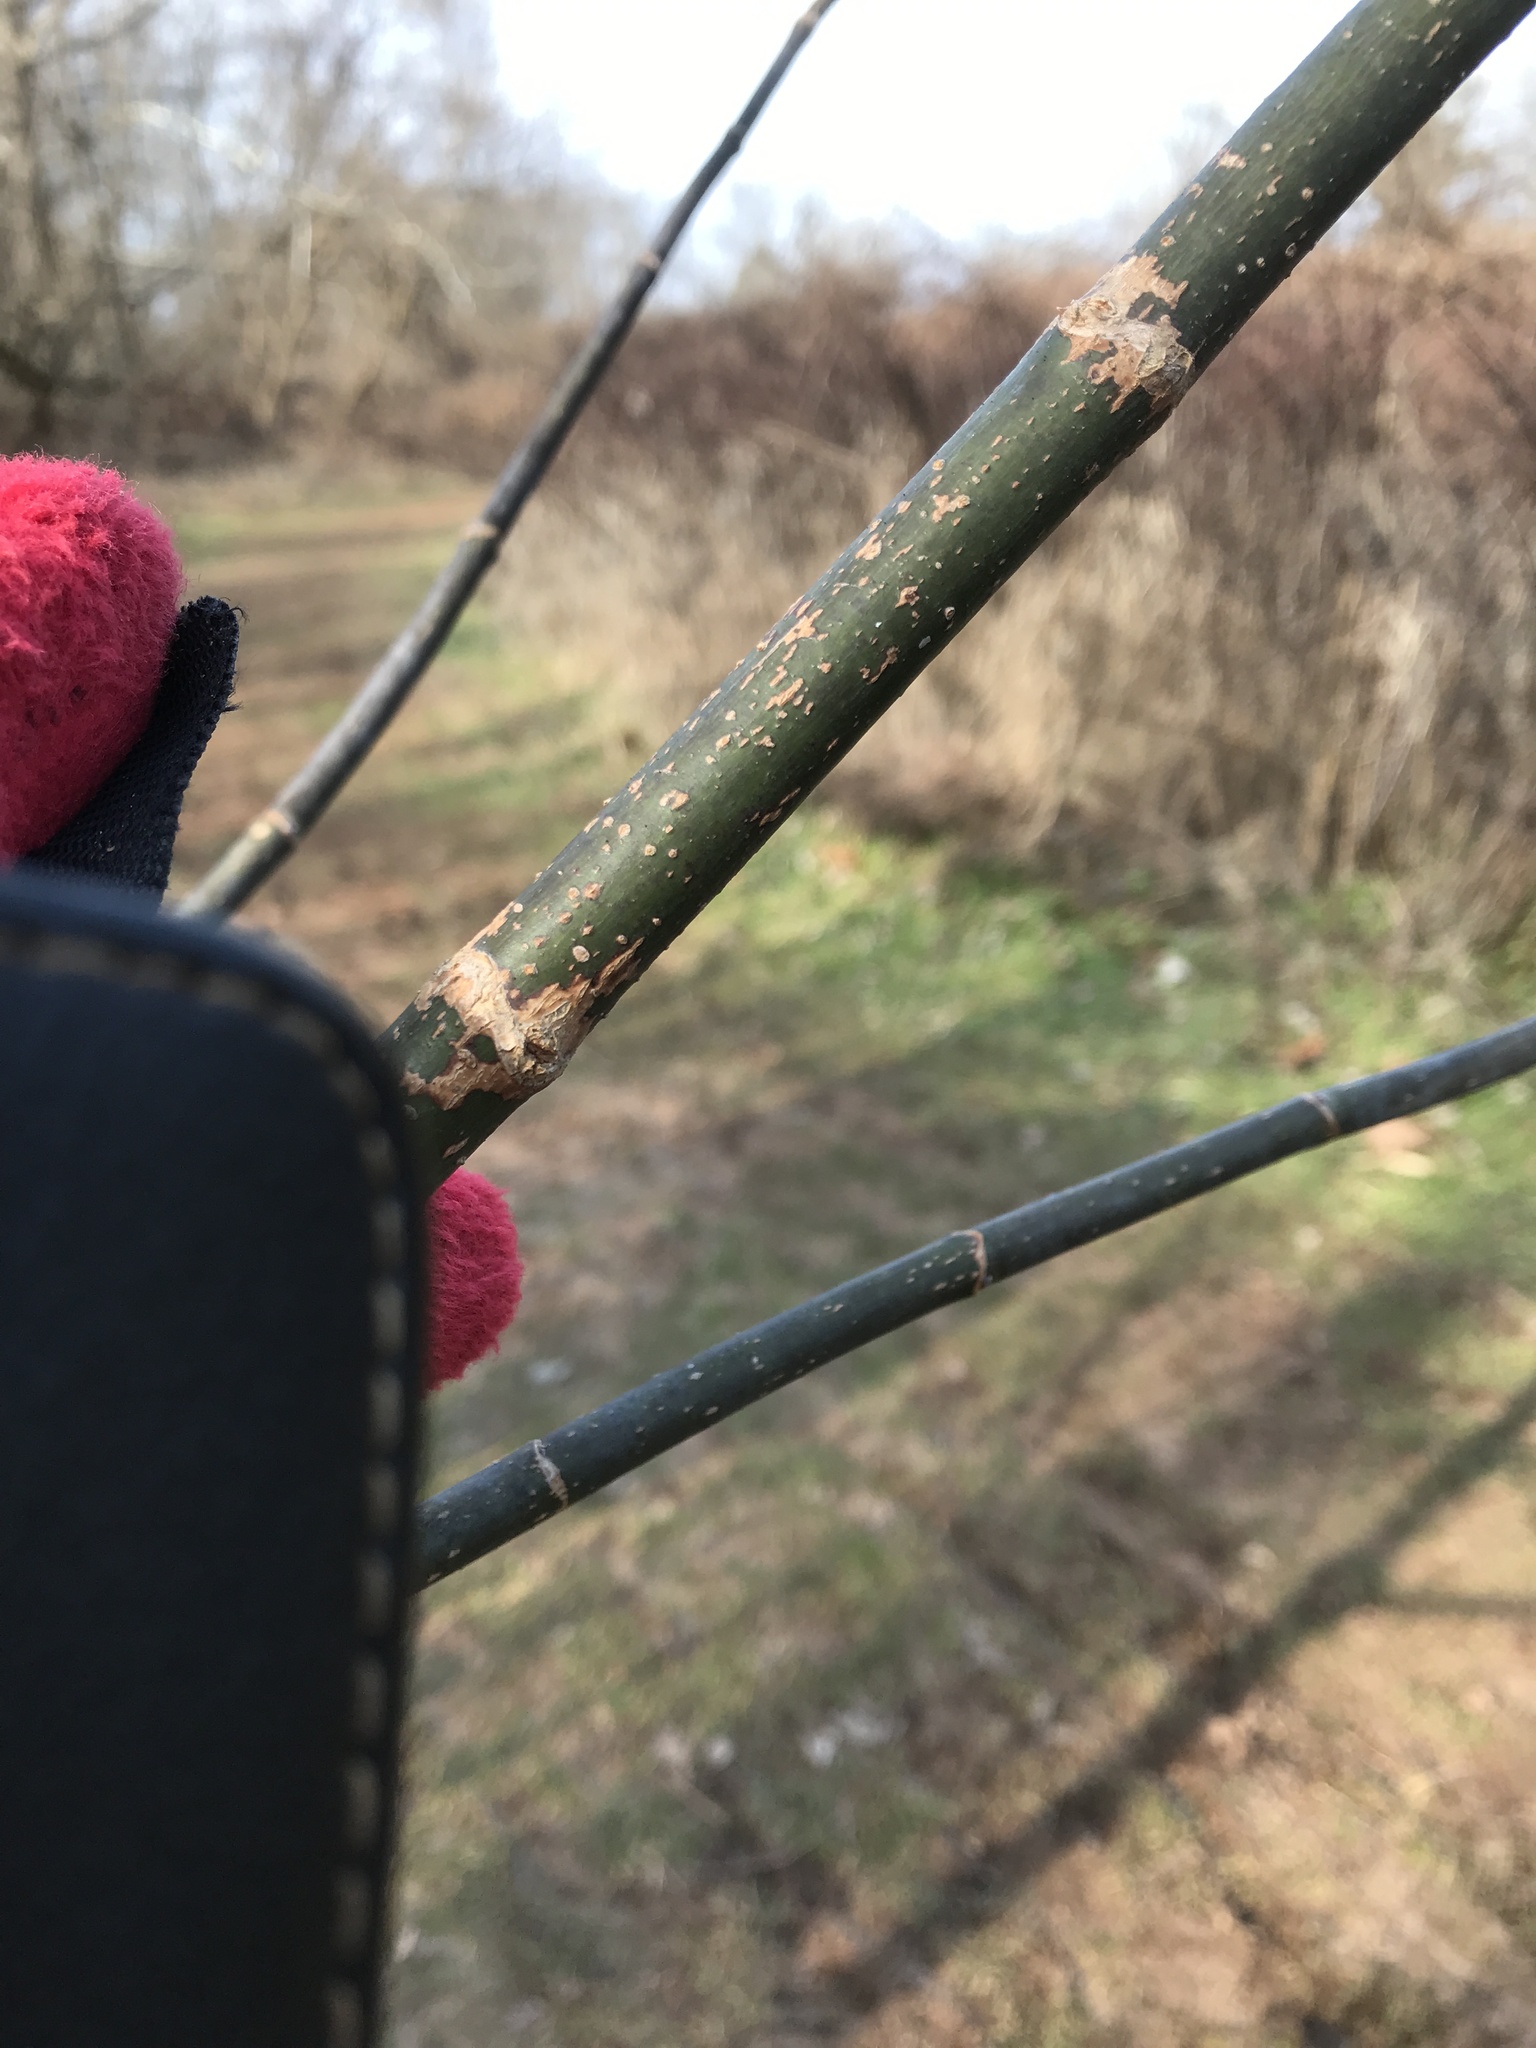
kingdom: Plantae
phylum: Tracheophyta
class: Magnoliopsida
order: Sapindales
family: Sapindaceae
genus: Acer
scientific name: Acer negundo
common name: Ashleaf maple
